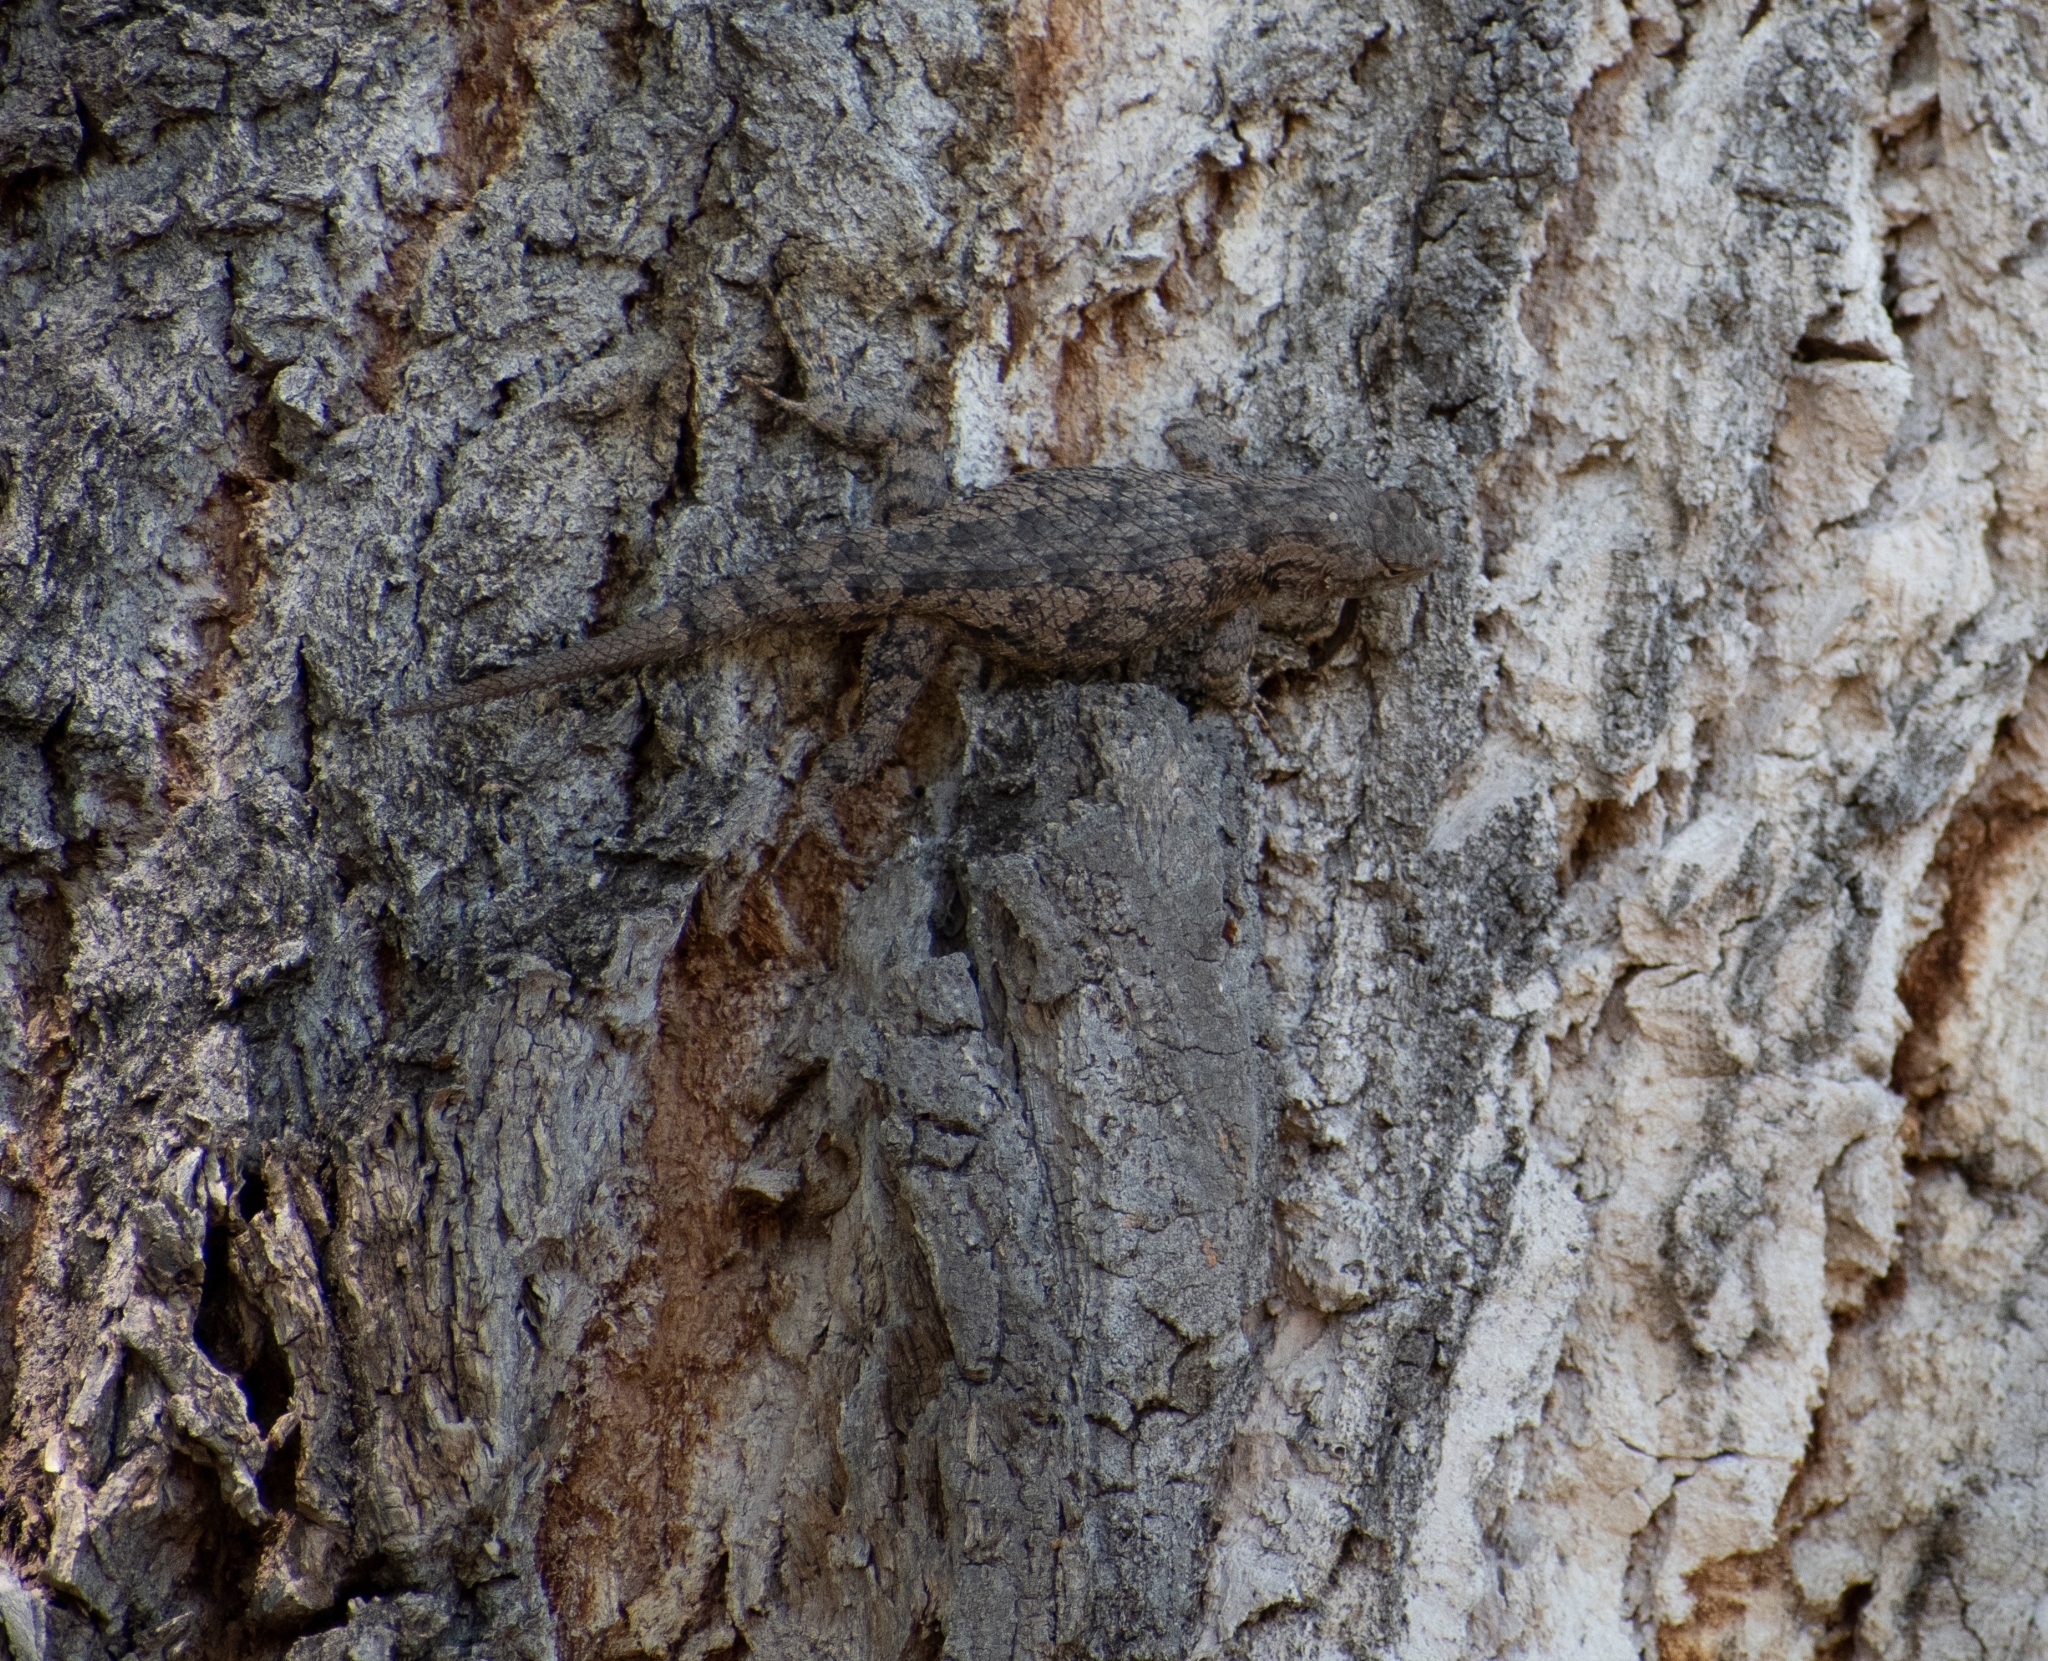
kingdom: Animalia
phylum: Chordata
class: Squamata
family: Phrynosomatidae
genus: Sceloporus
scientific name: Sceloporus clarkii
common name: Clark's spiny lizard
